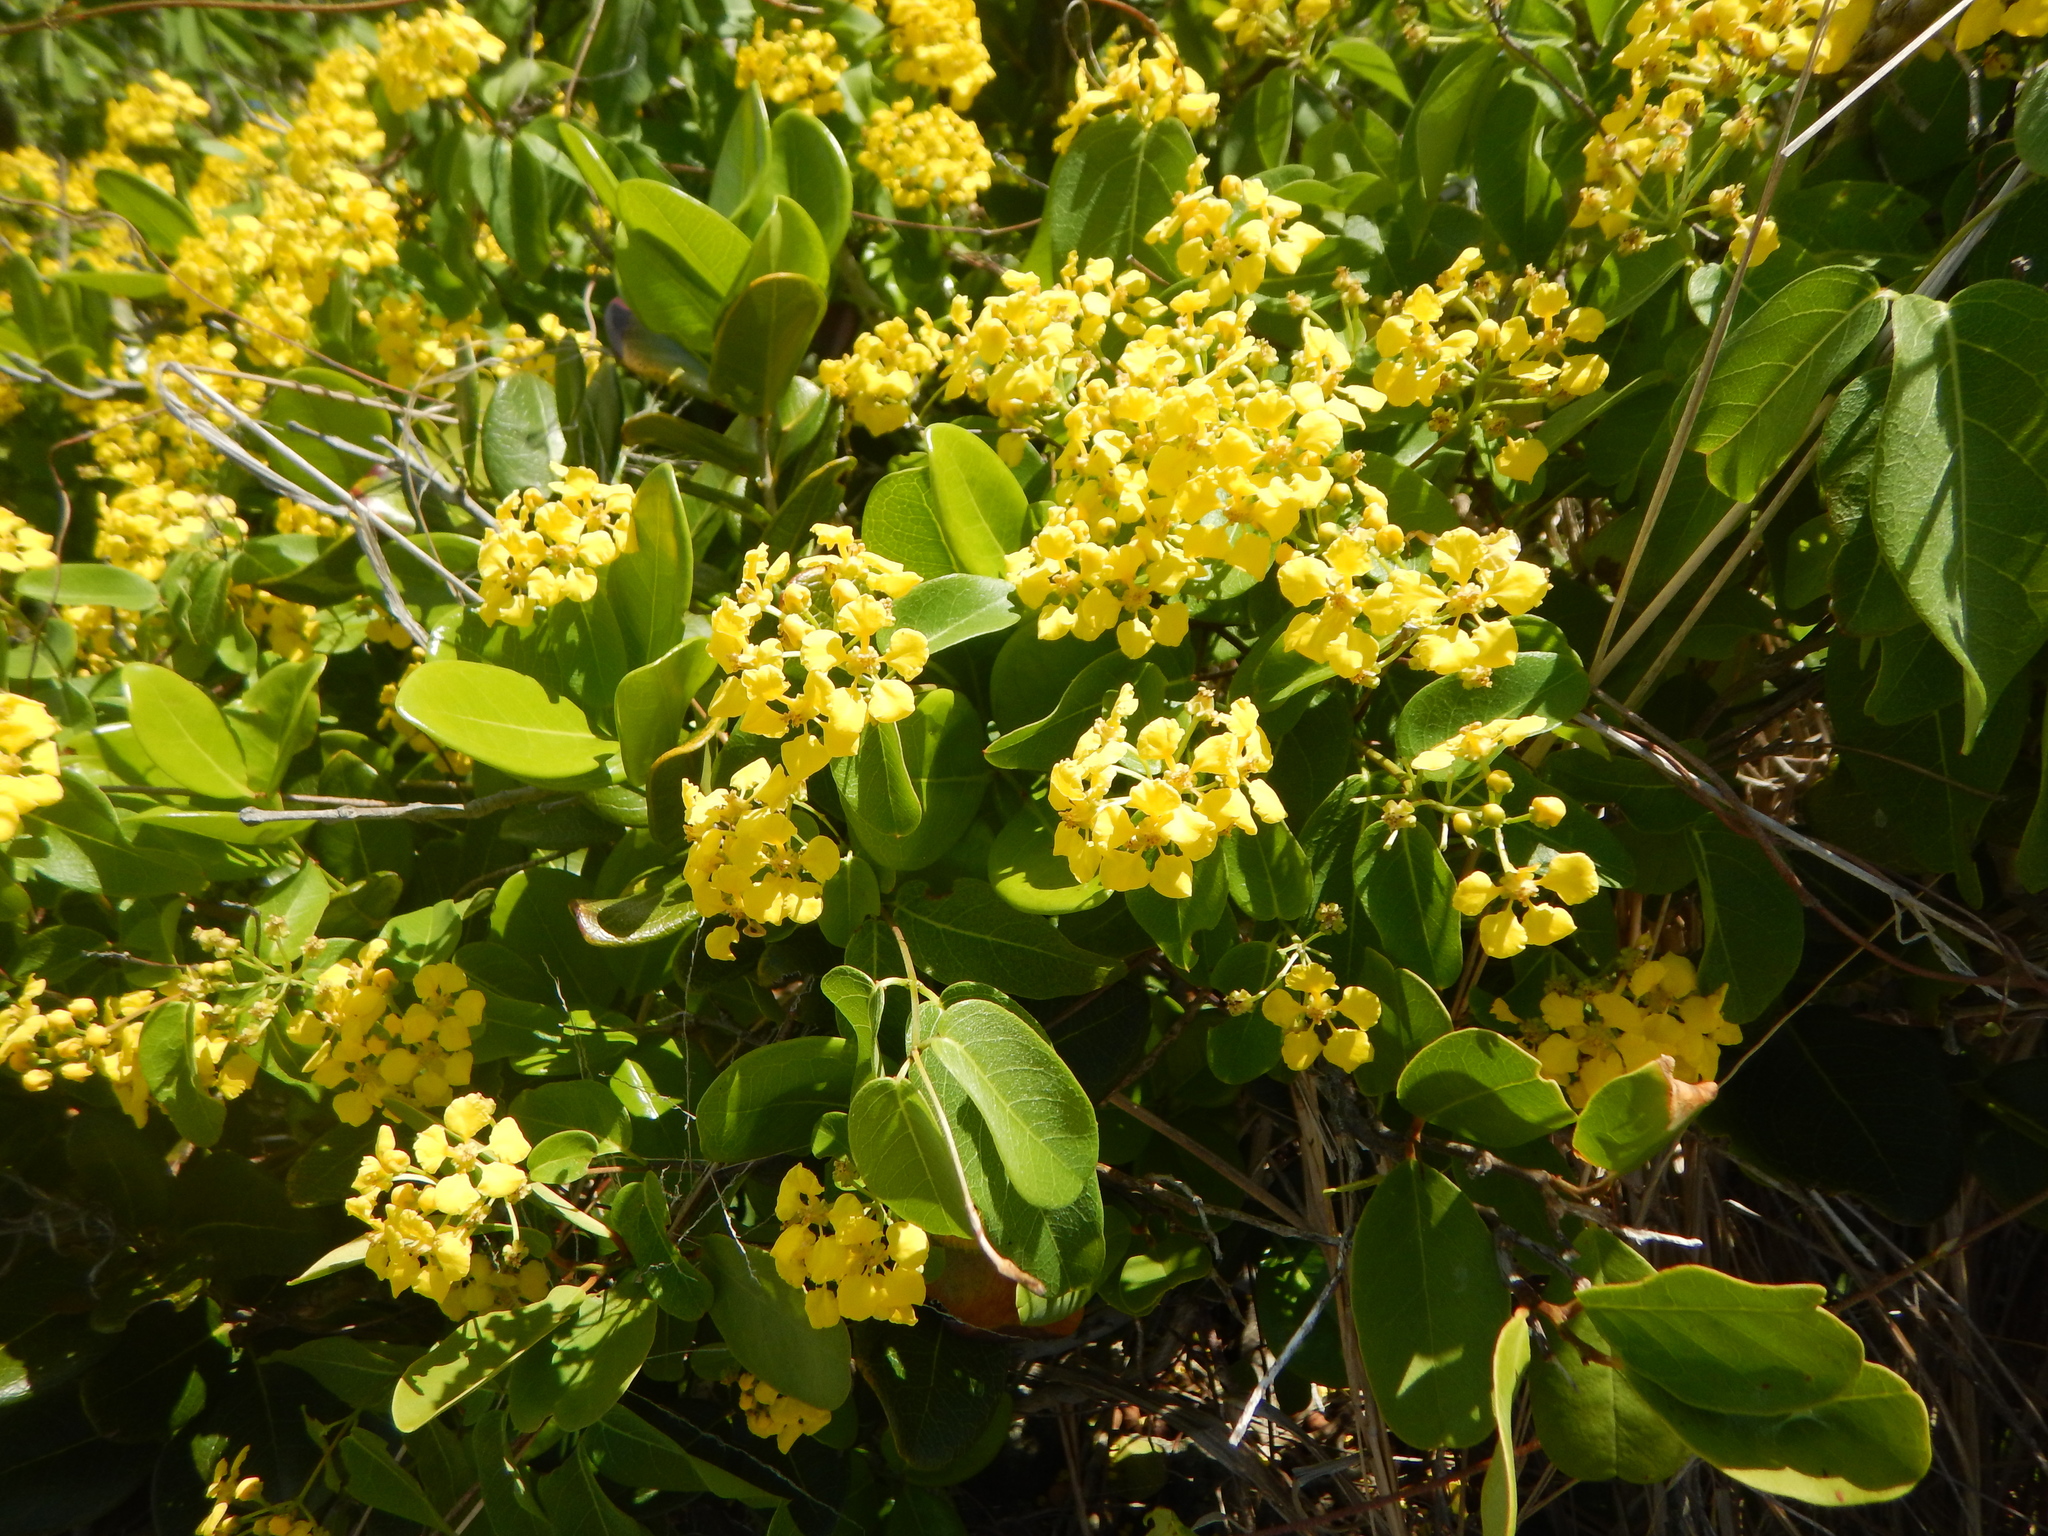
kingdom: Plantae
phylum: Tracheophyta
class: Magnoliopsida
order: Malpighiales
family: Malpighiaceae
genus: Stigmaphyllon
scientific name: Stigmaphyllon emarginatum
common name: Monarch amazonvine
